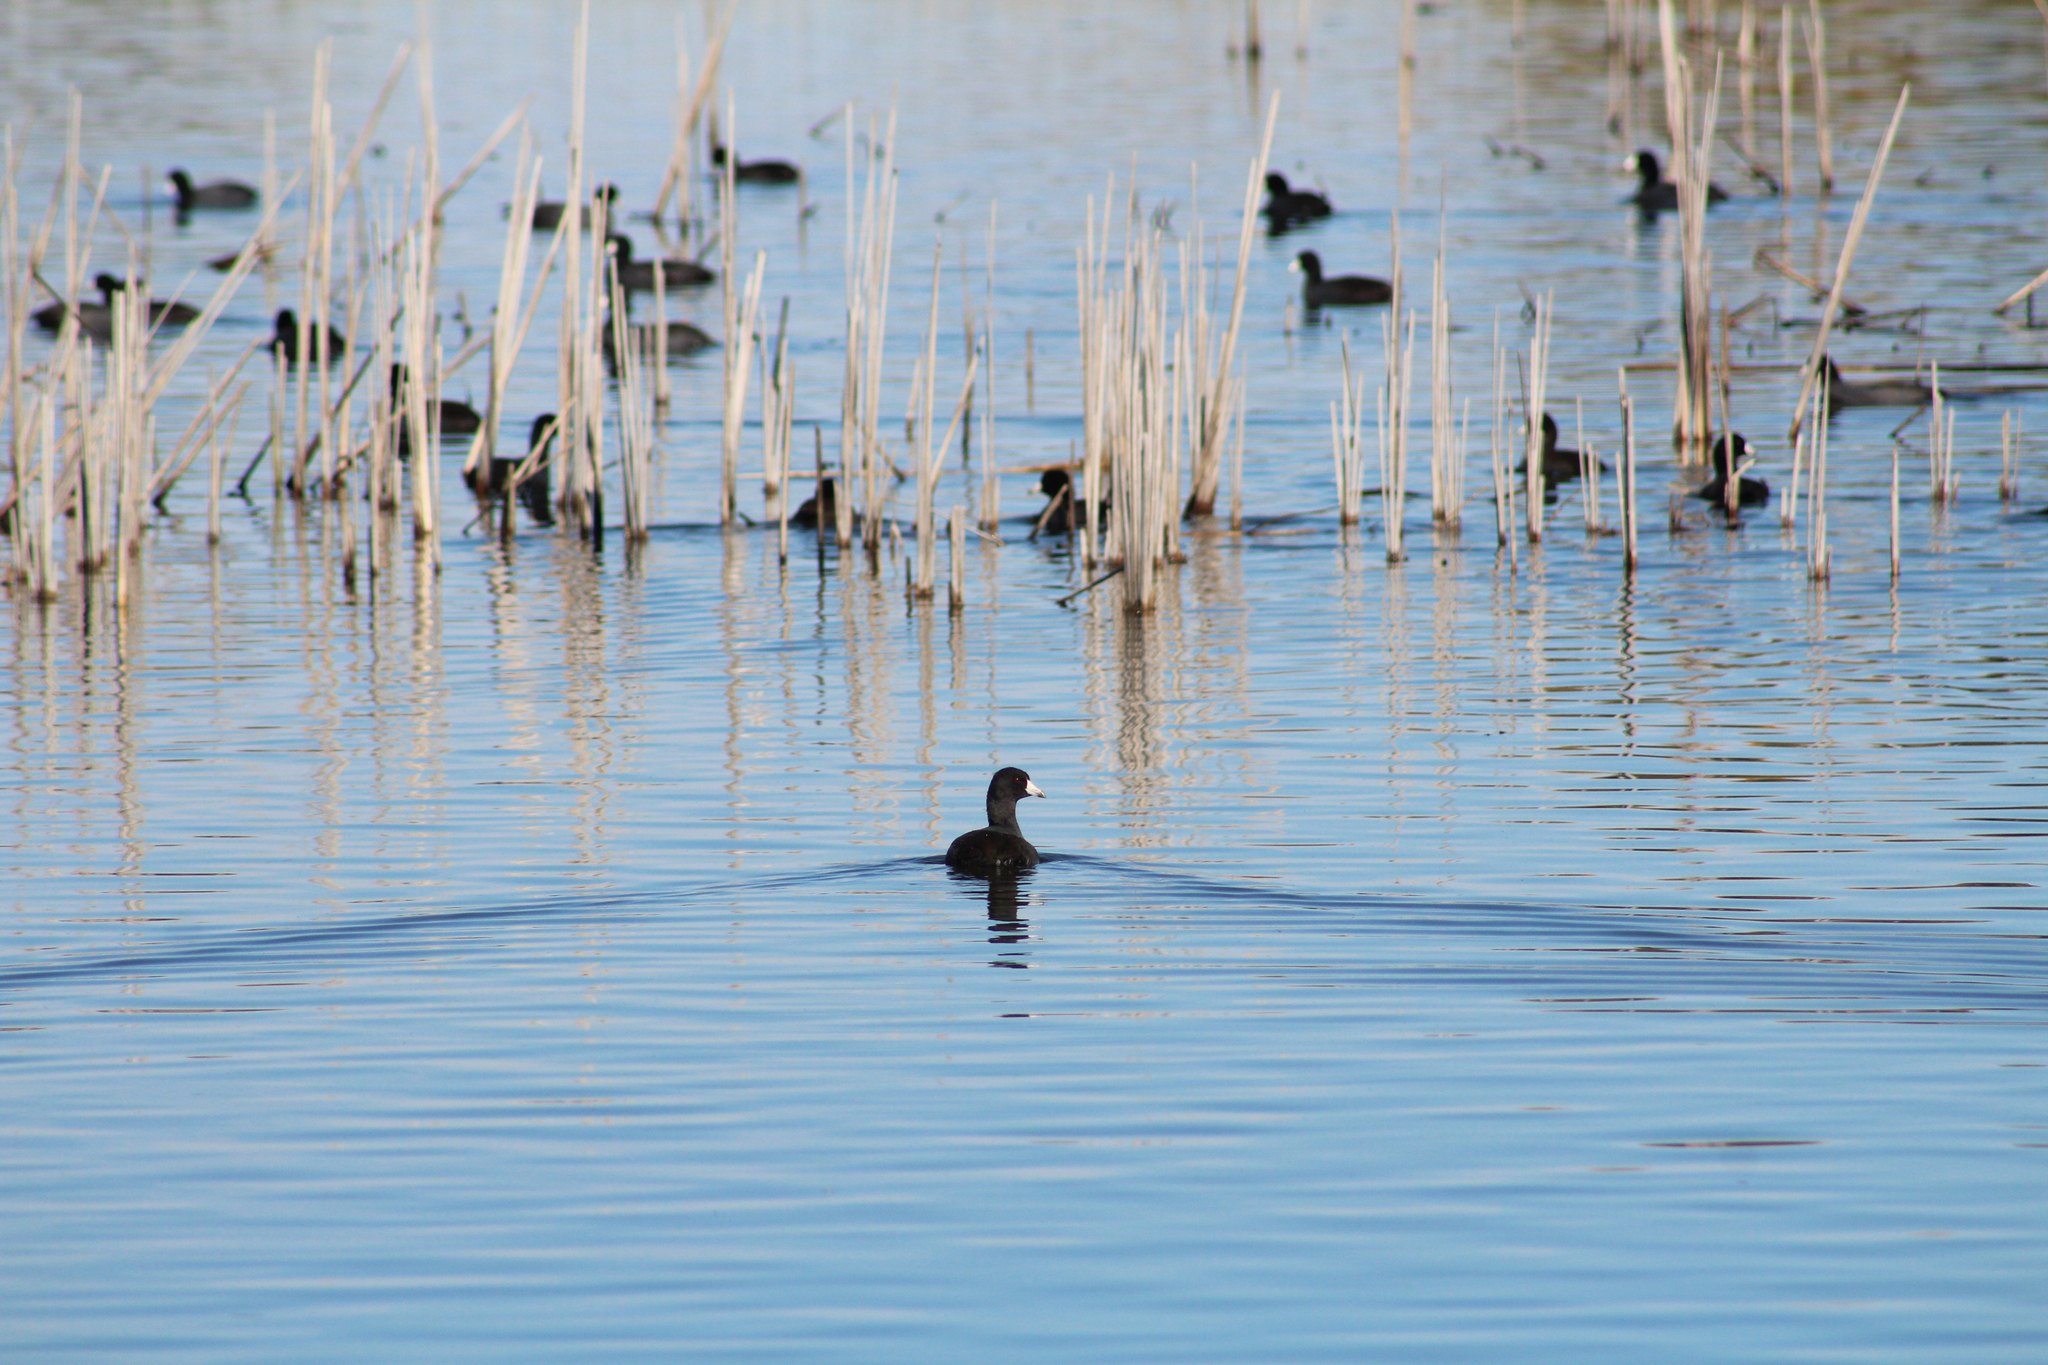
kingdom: Animalia
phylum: Chordata
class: Aves
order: Gruiformes
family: Rallidae
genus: Fulica
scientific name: Fulica americana
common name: American coot
